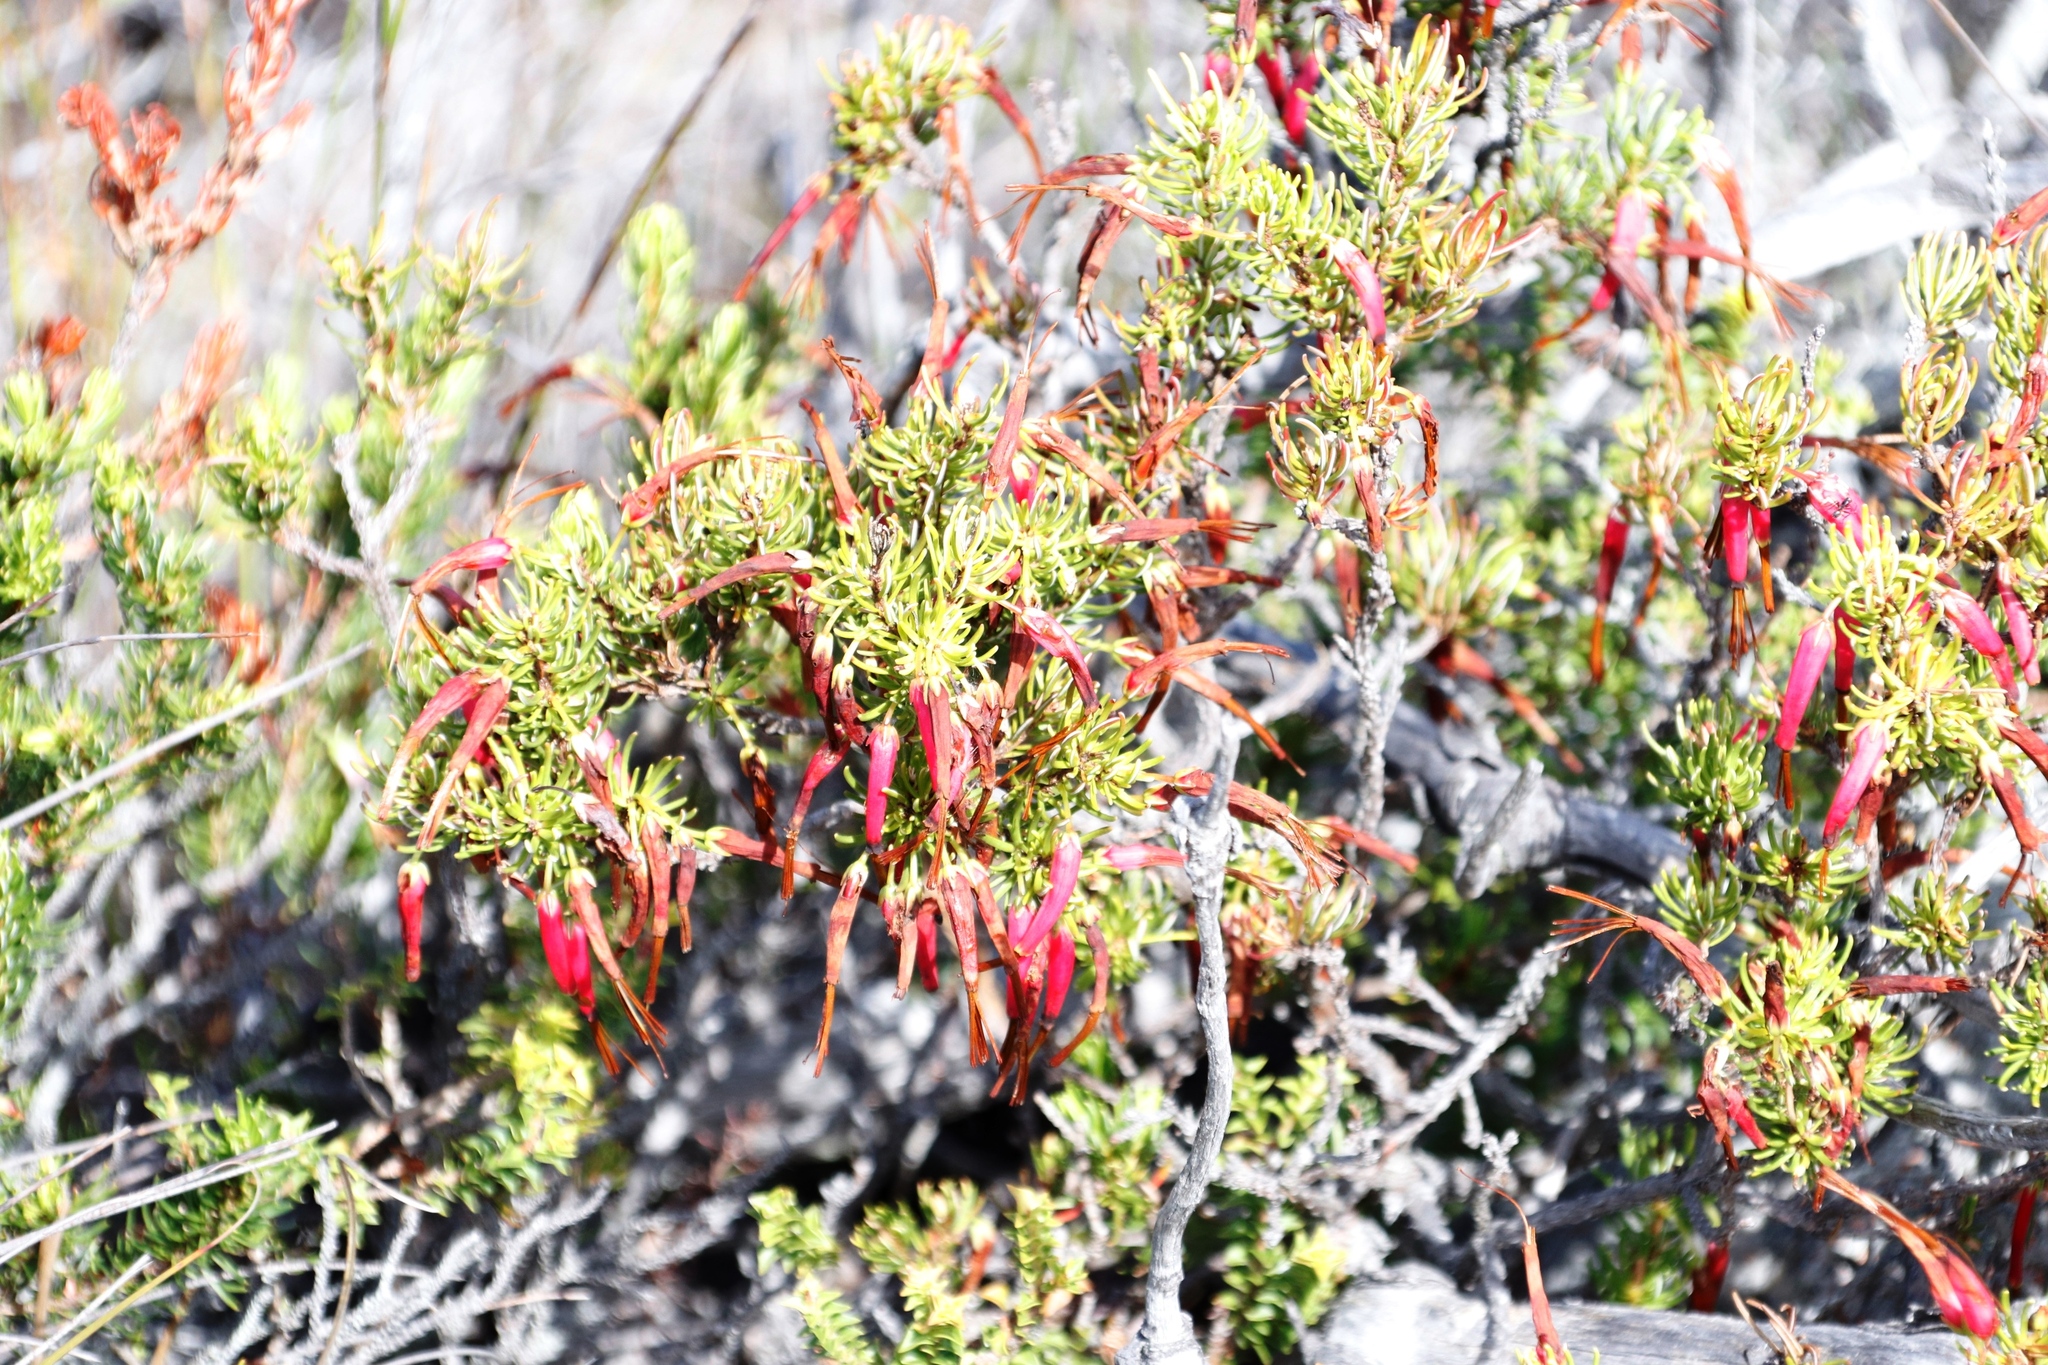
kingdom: Plantae
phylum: Tracheophyta
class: Magnoliopsida
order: Ericales
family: Ericaceae
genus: Erica
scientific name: Erica plukenetii
